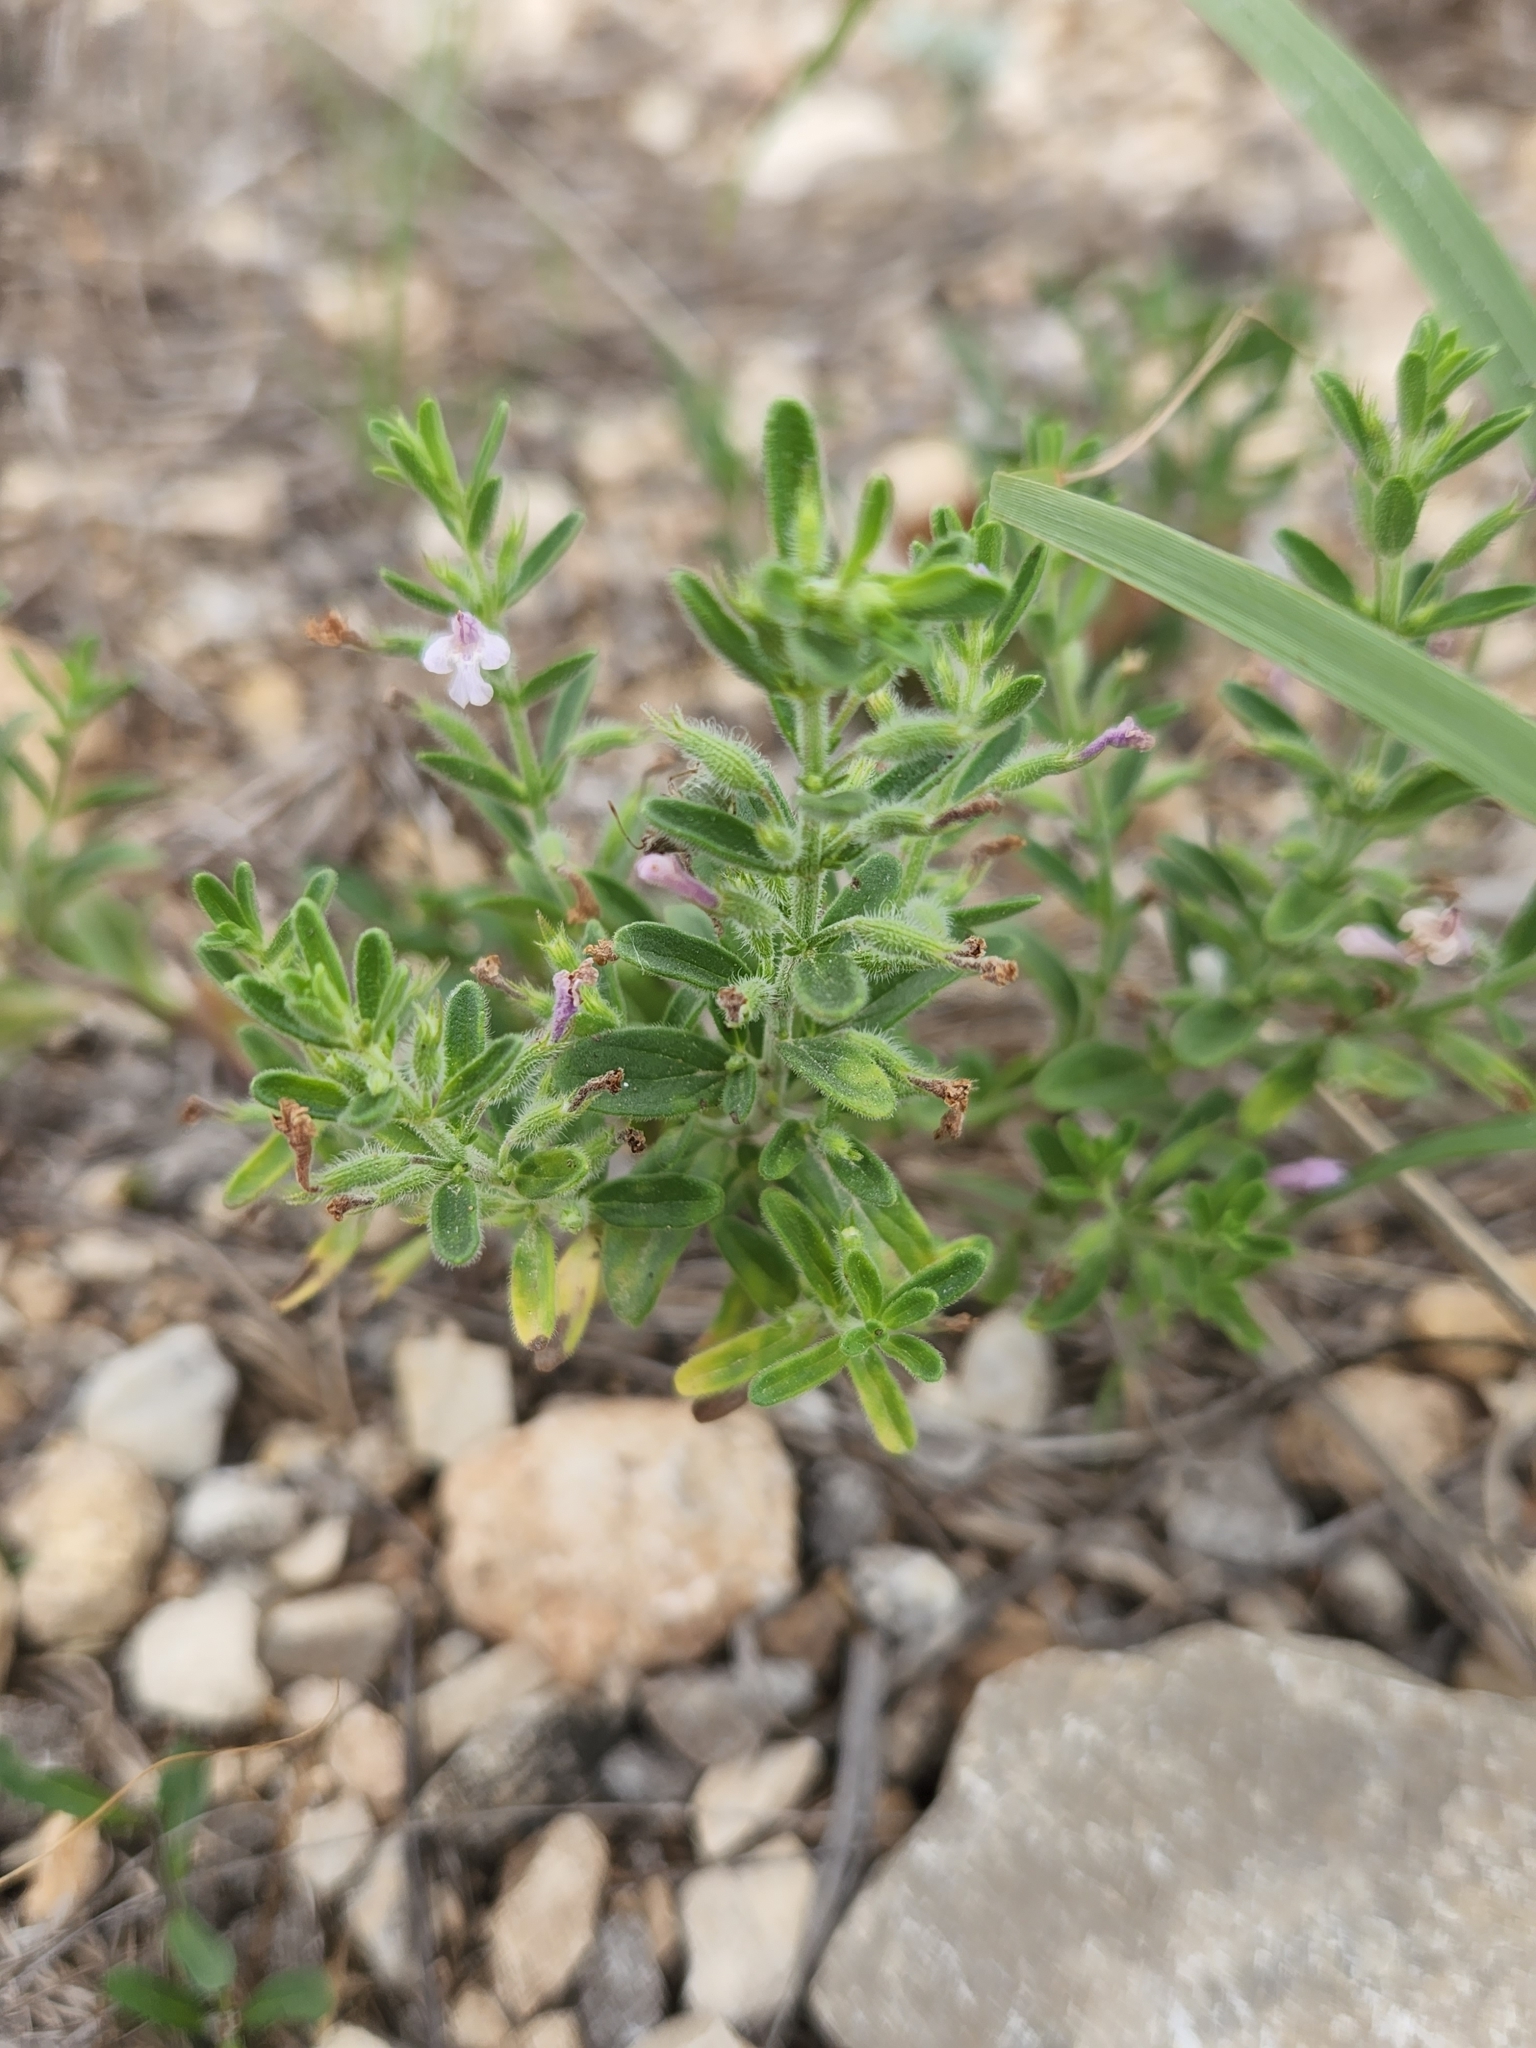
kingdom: Plantae
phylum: Tracheophyta
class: Magnoliopsida
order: Lamiales
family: Lamiaceae
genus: Hedeoma
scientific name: Hedeoma reverchonii
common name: Reverchon's false penny-royal
